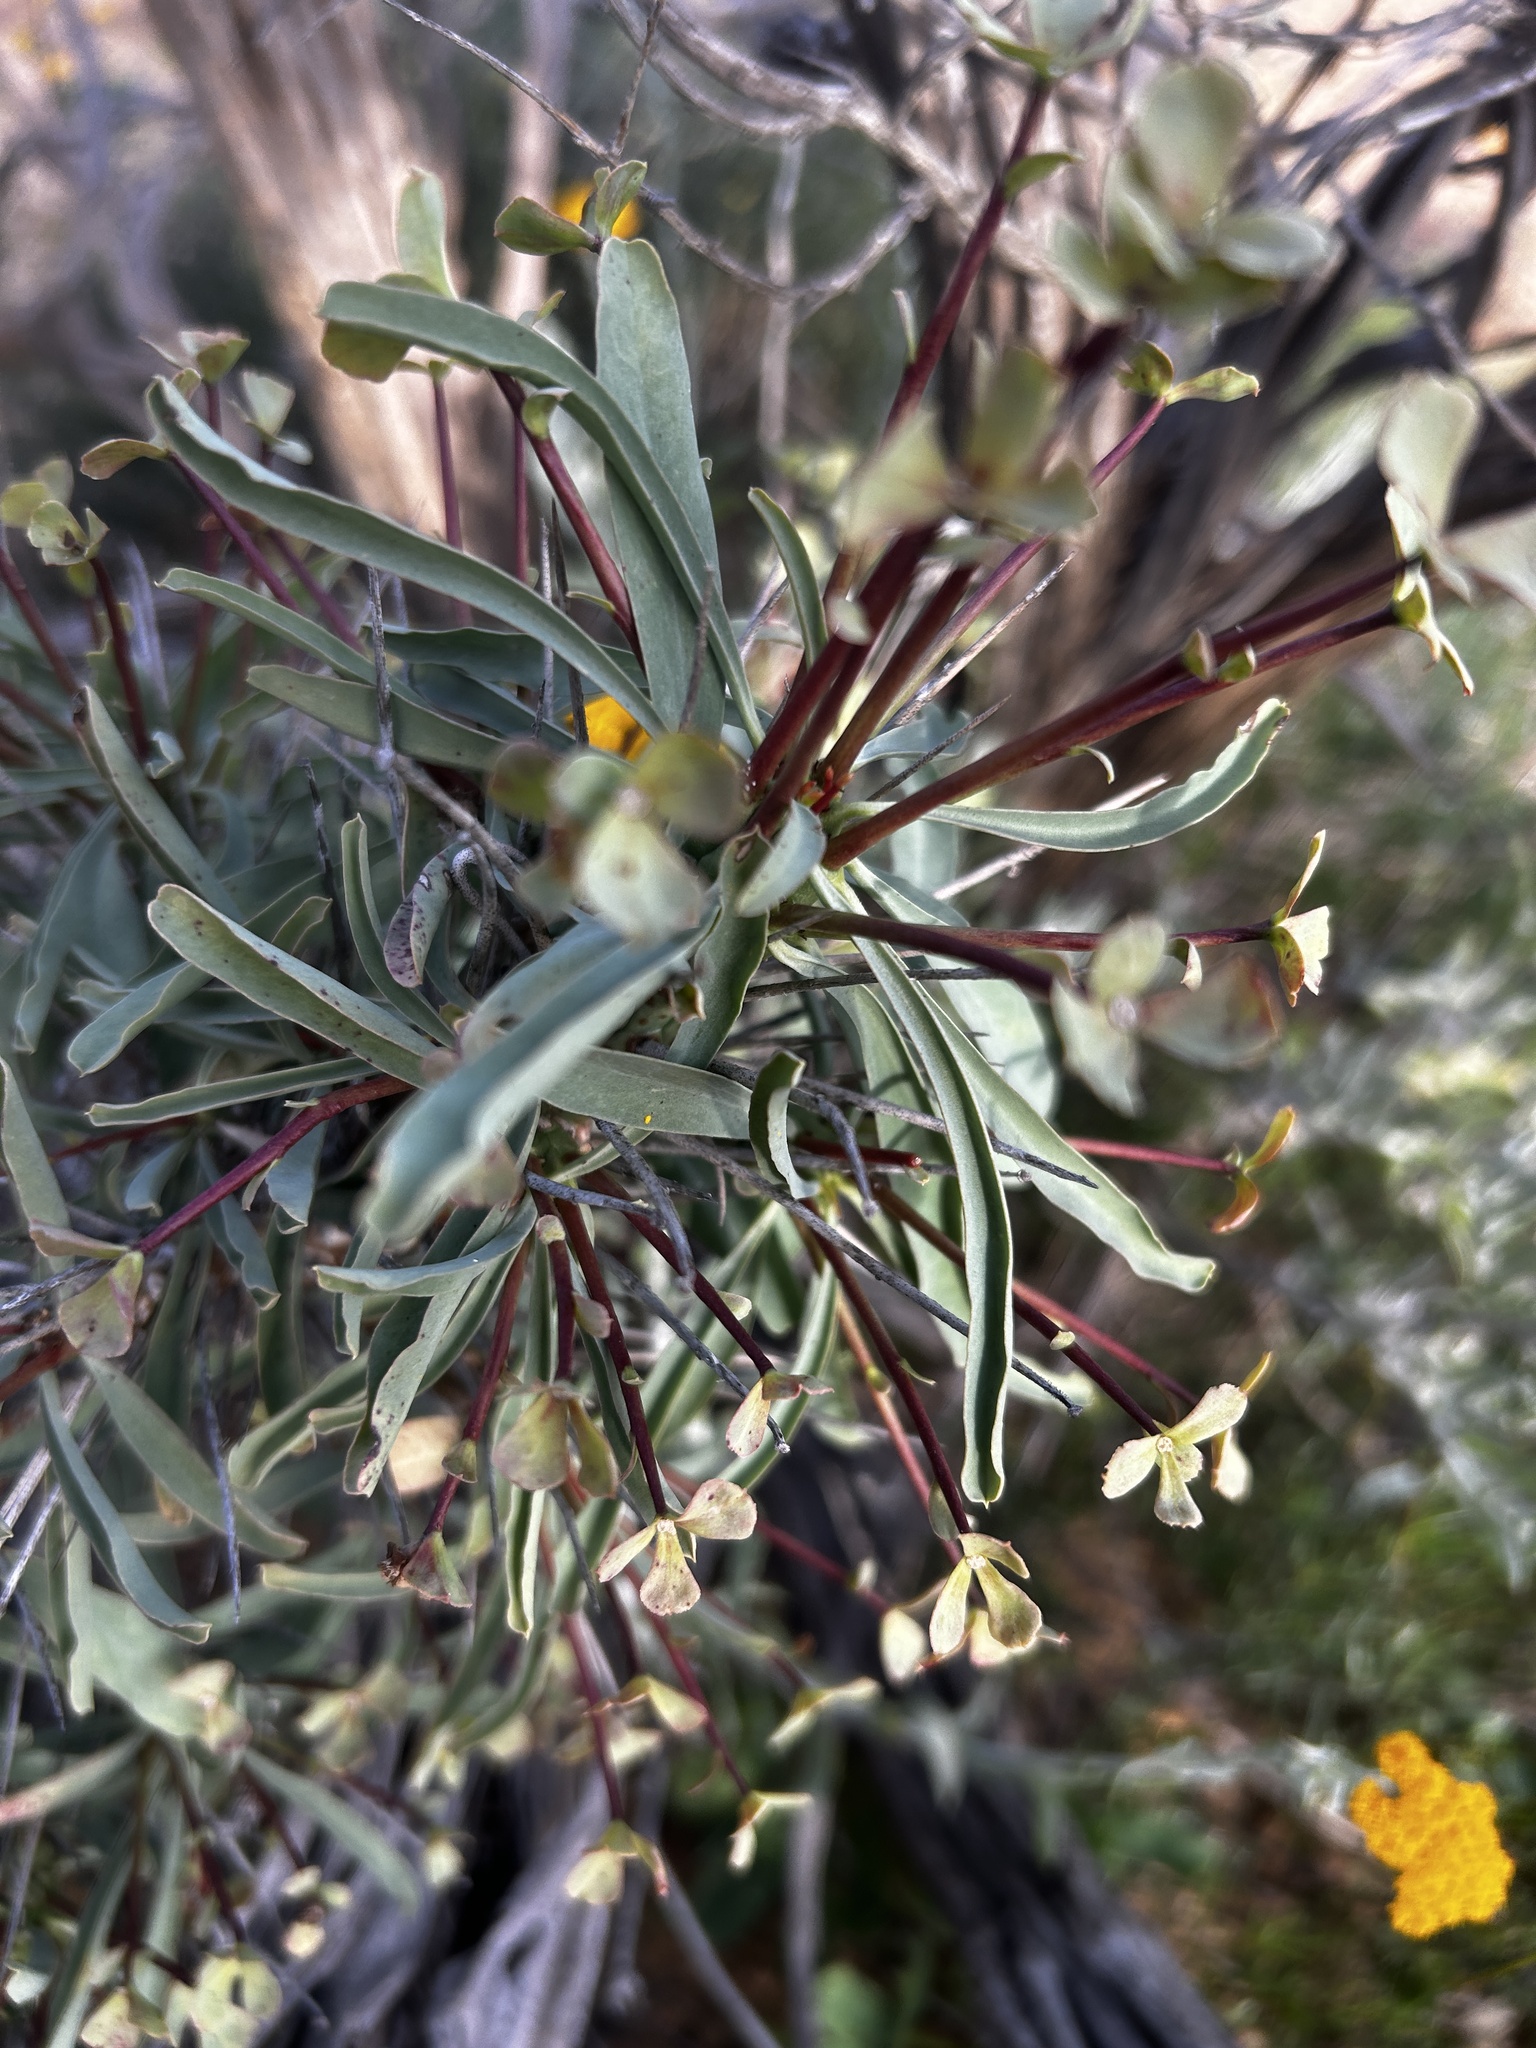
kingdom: Plantae
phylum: Tracheophyta
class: Magnoliopsida
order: Malpighiales
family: Euphorbiaceae
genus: Euphorbia
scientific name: Euphorbia loricata
